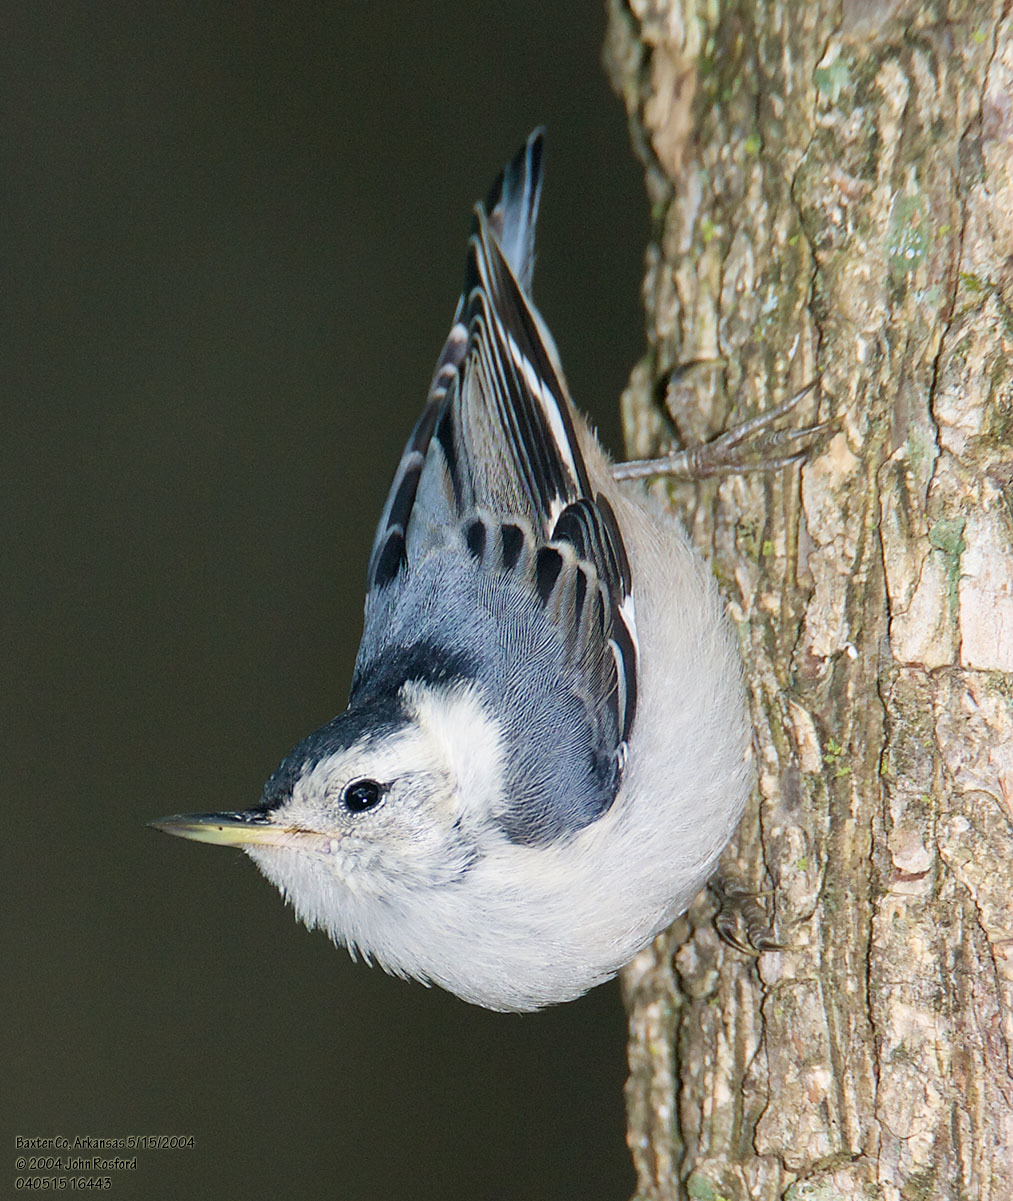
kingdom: Animalia
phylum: Chordata
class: Aves
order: Passeriformes
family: Sittidae
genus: Sitta
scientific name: Sitta carolinensis
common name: White-breasted nuthatch
